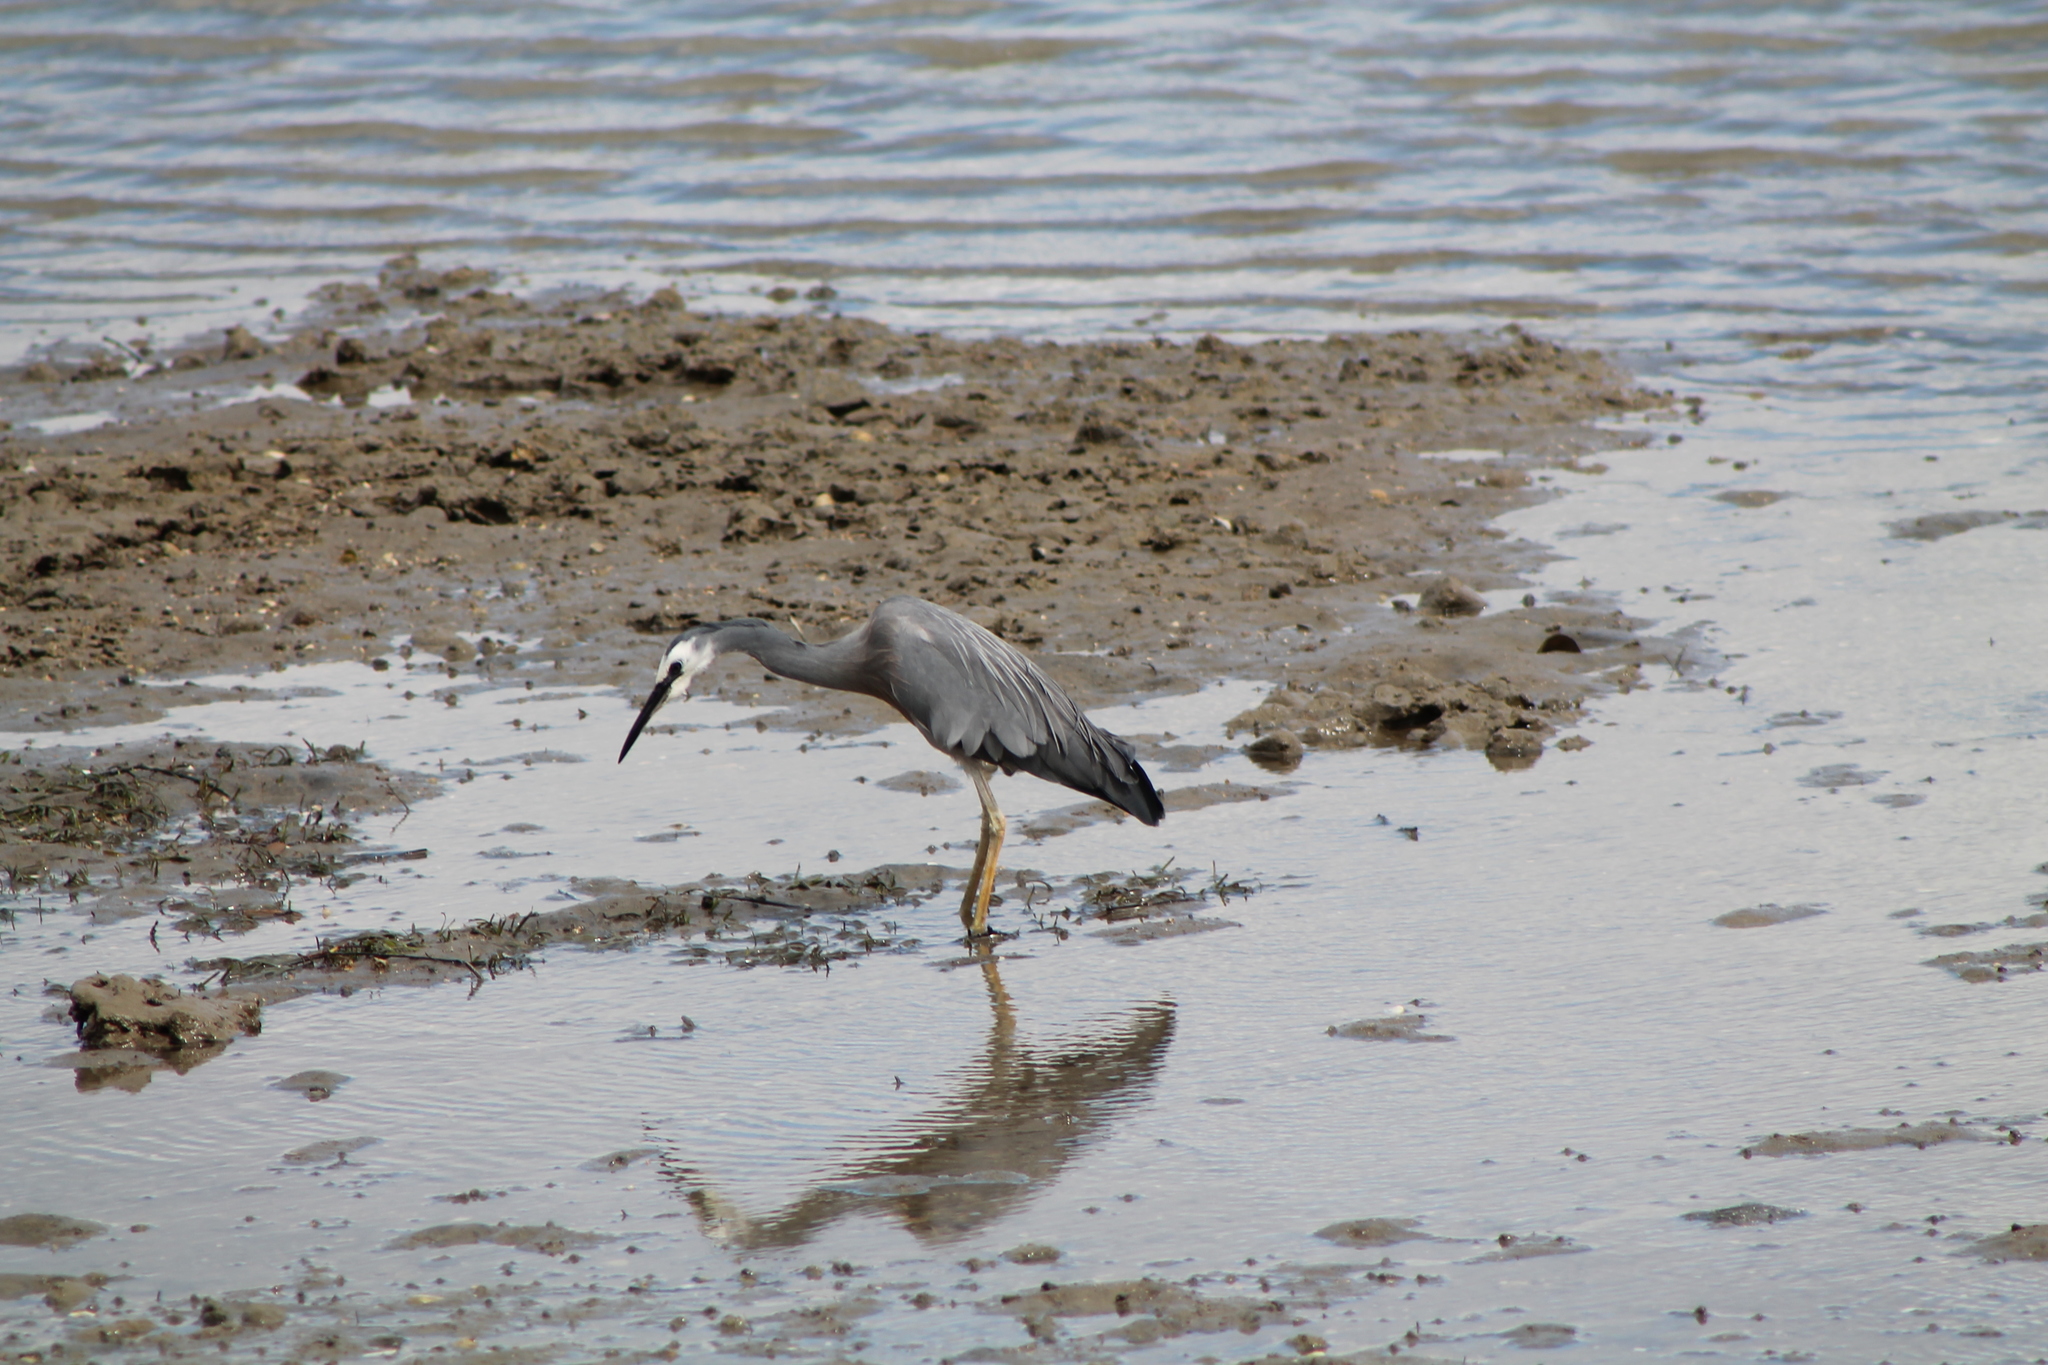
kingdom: Animalia
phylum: Chordata
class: Aves
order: Pelecaniformes
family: Ardeidae
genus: Egretta
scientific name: Egretta novaehollandiae
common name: White-faced heron
